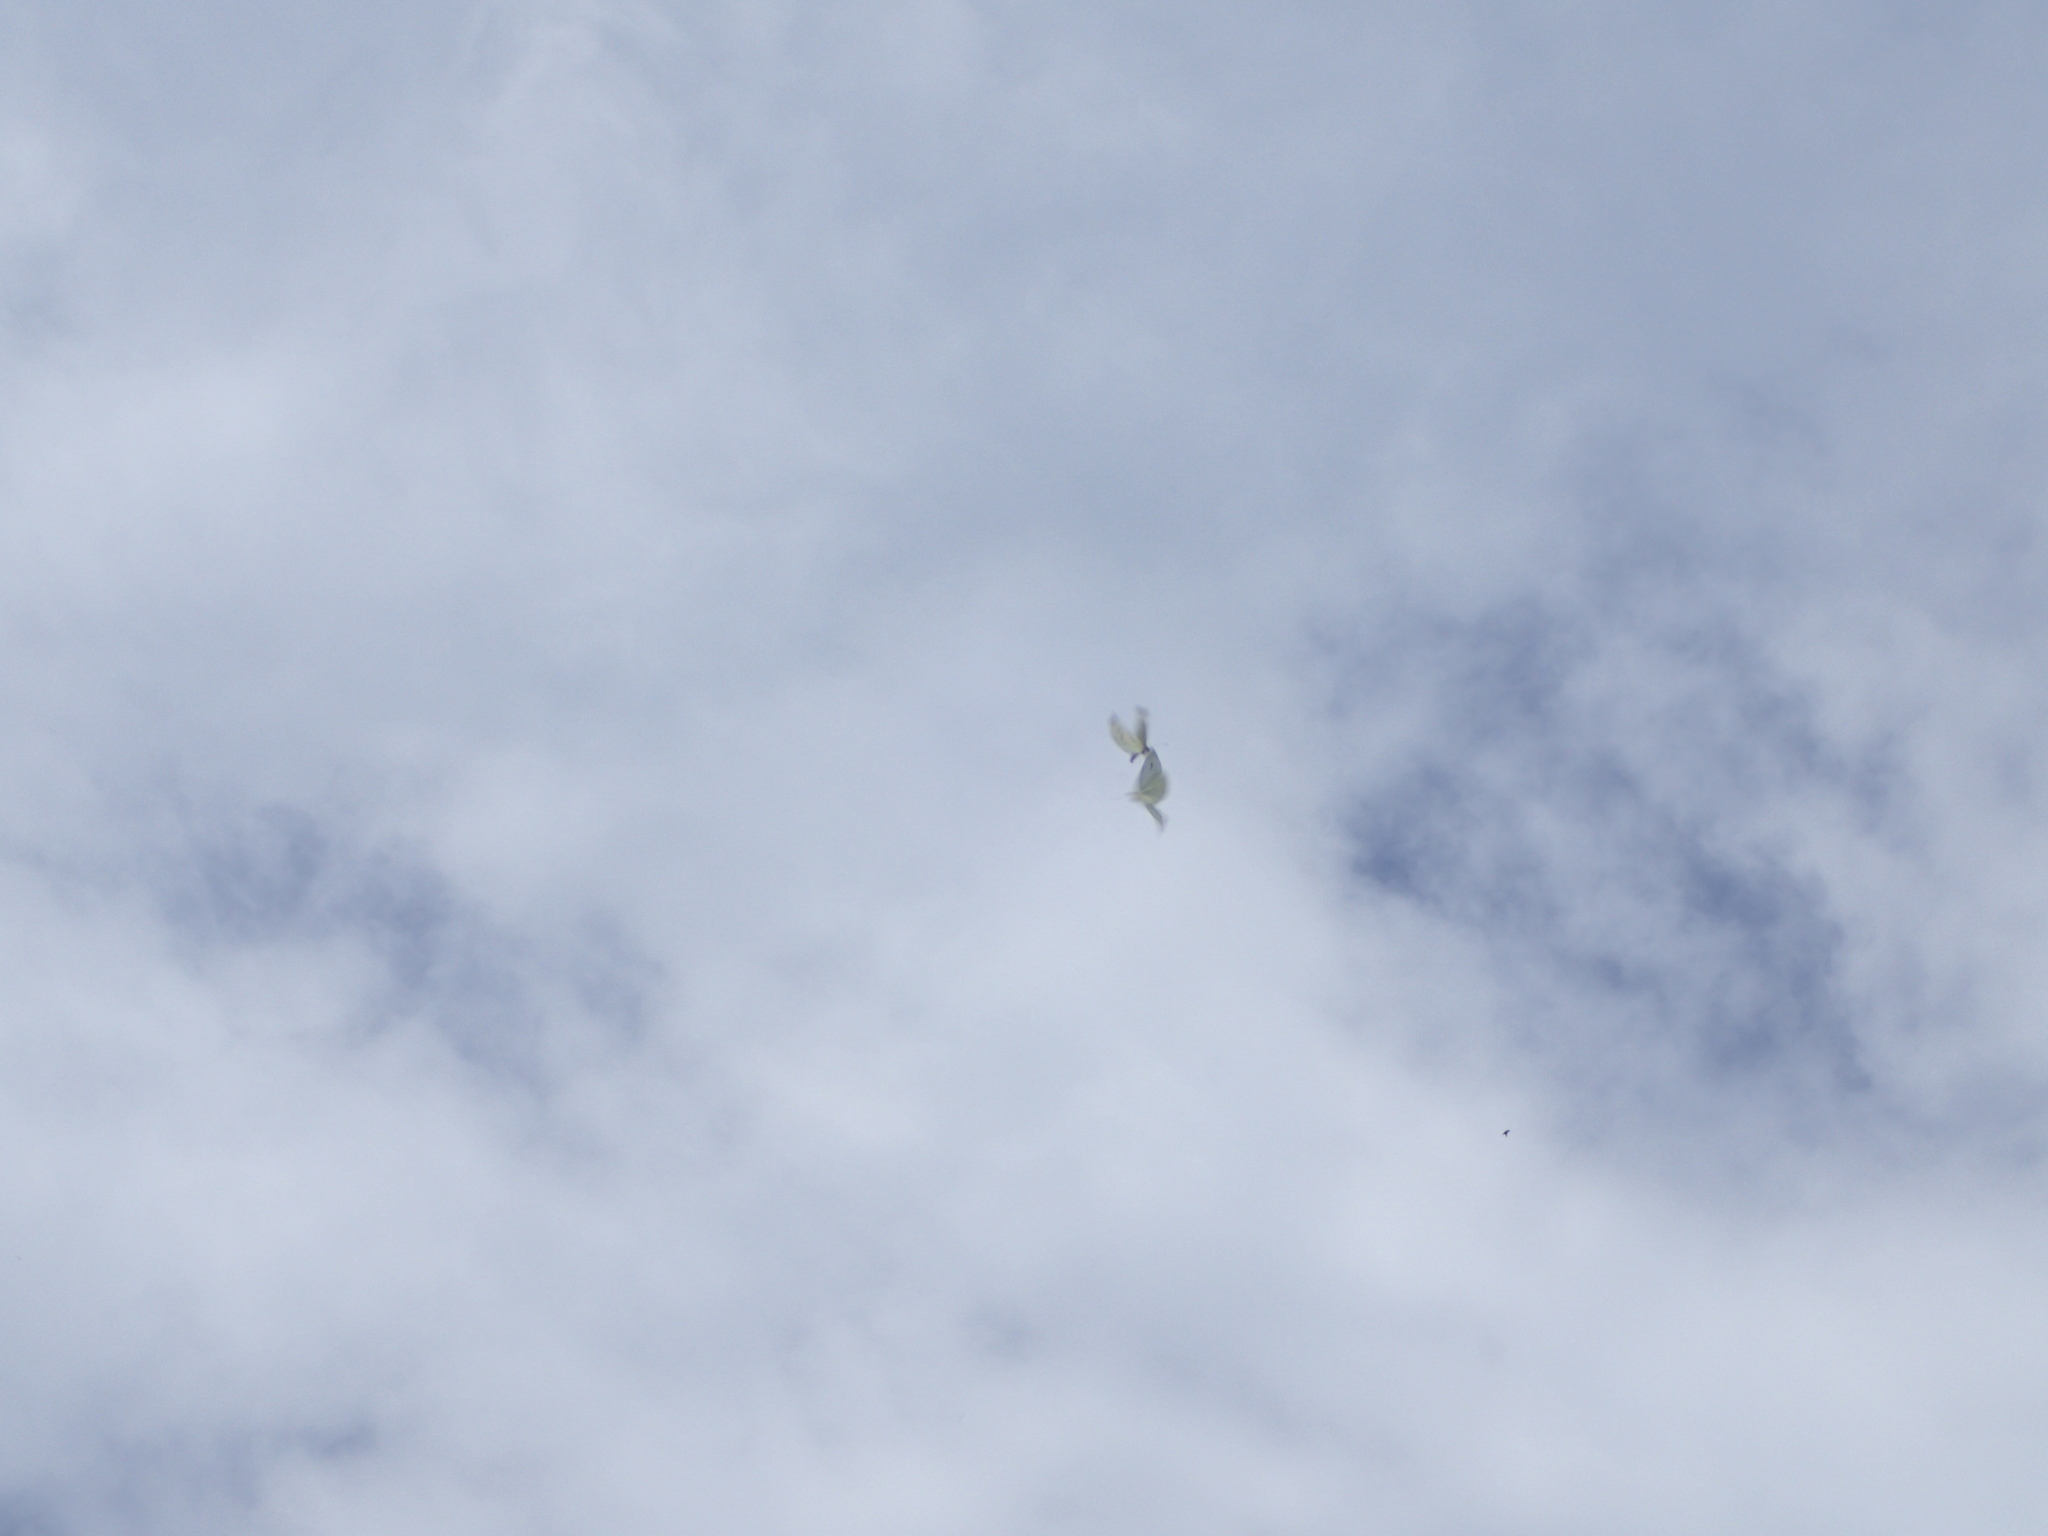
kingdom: Animalia
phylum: Arthropoda
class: Insecta
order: Lepidoptera
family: Pieridae
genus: Pieris
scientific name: Pieris rapae
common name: Small white
